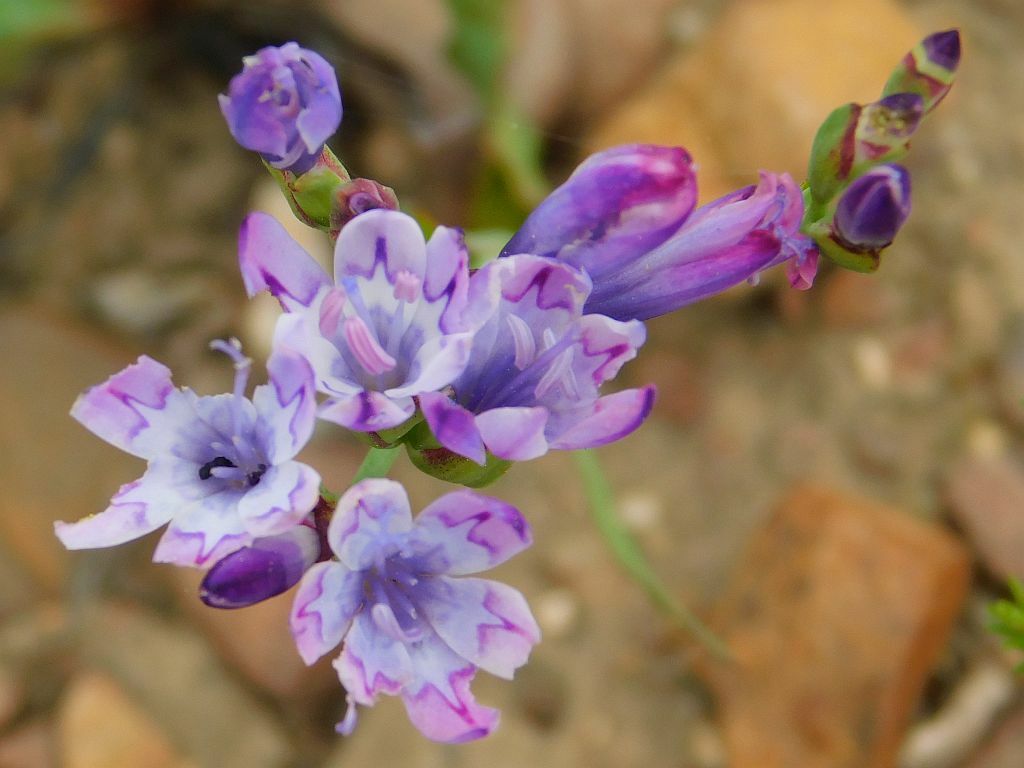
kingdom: Plantae
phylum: Tracheophyta
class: Liliopsida
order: Asparagales
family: Iridaceae
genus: Codonorhiza
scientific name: Codonorhiza corymbosa
